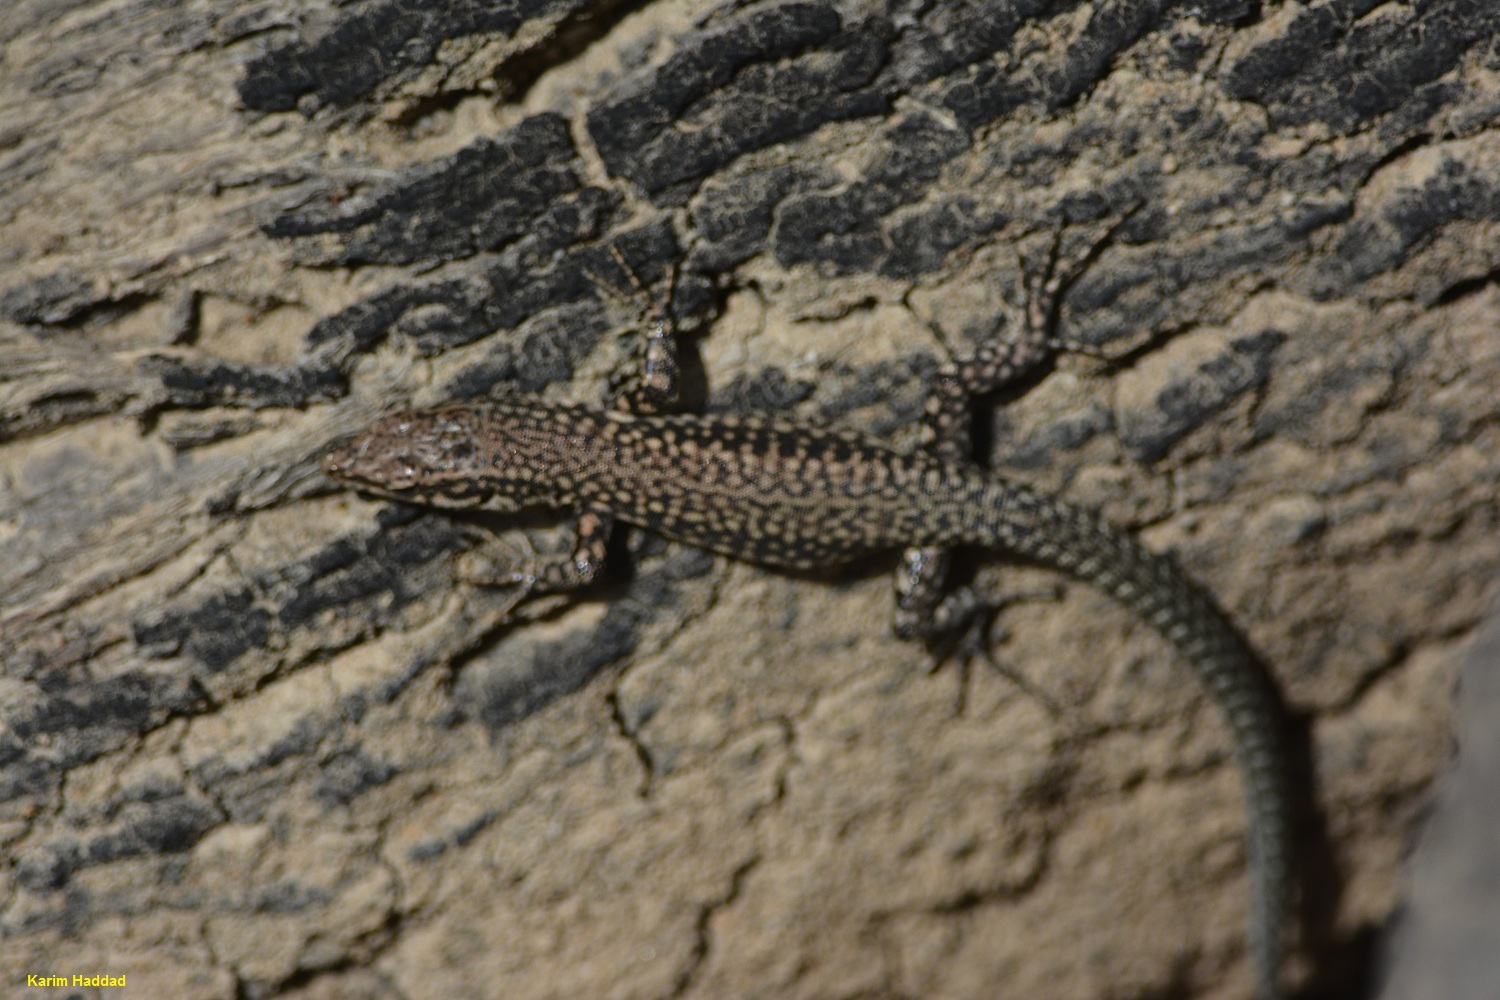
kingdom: Animalia
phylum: Chordata
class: Squamata
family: Lacertidae
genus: Podarcis
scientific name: Podarcis vaucheri
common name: Vaucher's wall lizard
